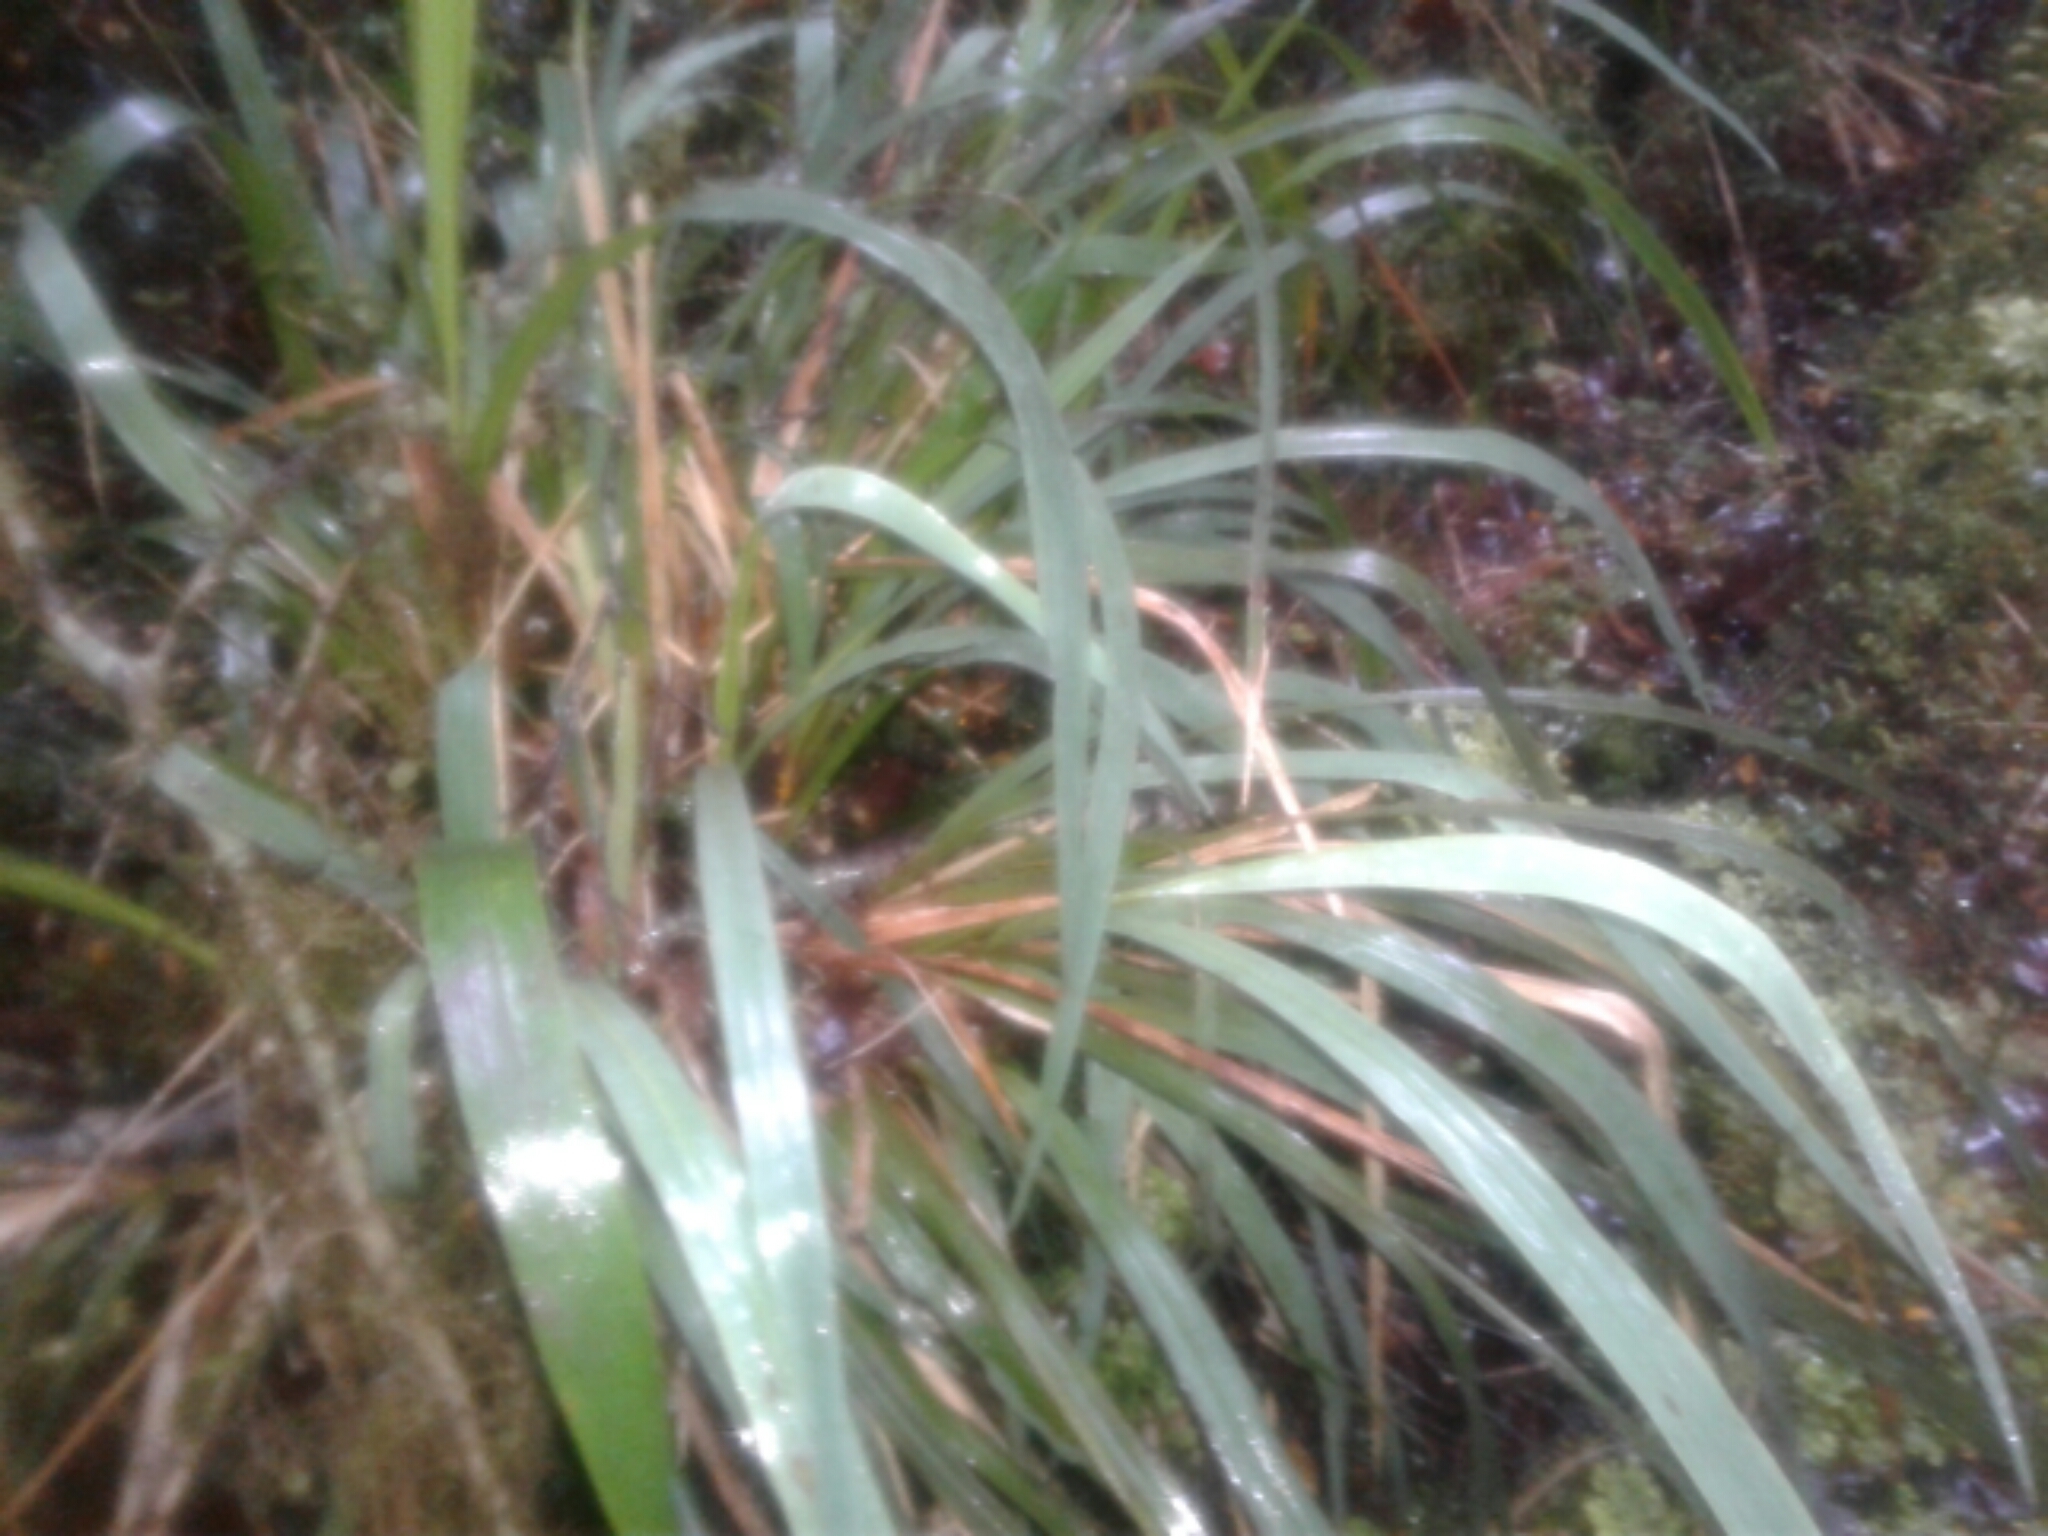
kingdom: Plantae
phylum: Tracheophyta
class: Liliopsida
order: Poales
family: Poaceae
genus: Ehrharta
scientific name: Ehrharta diplax
